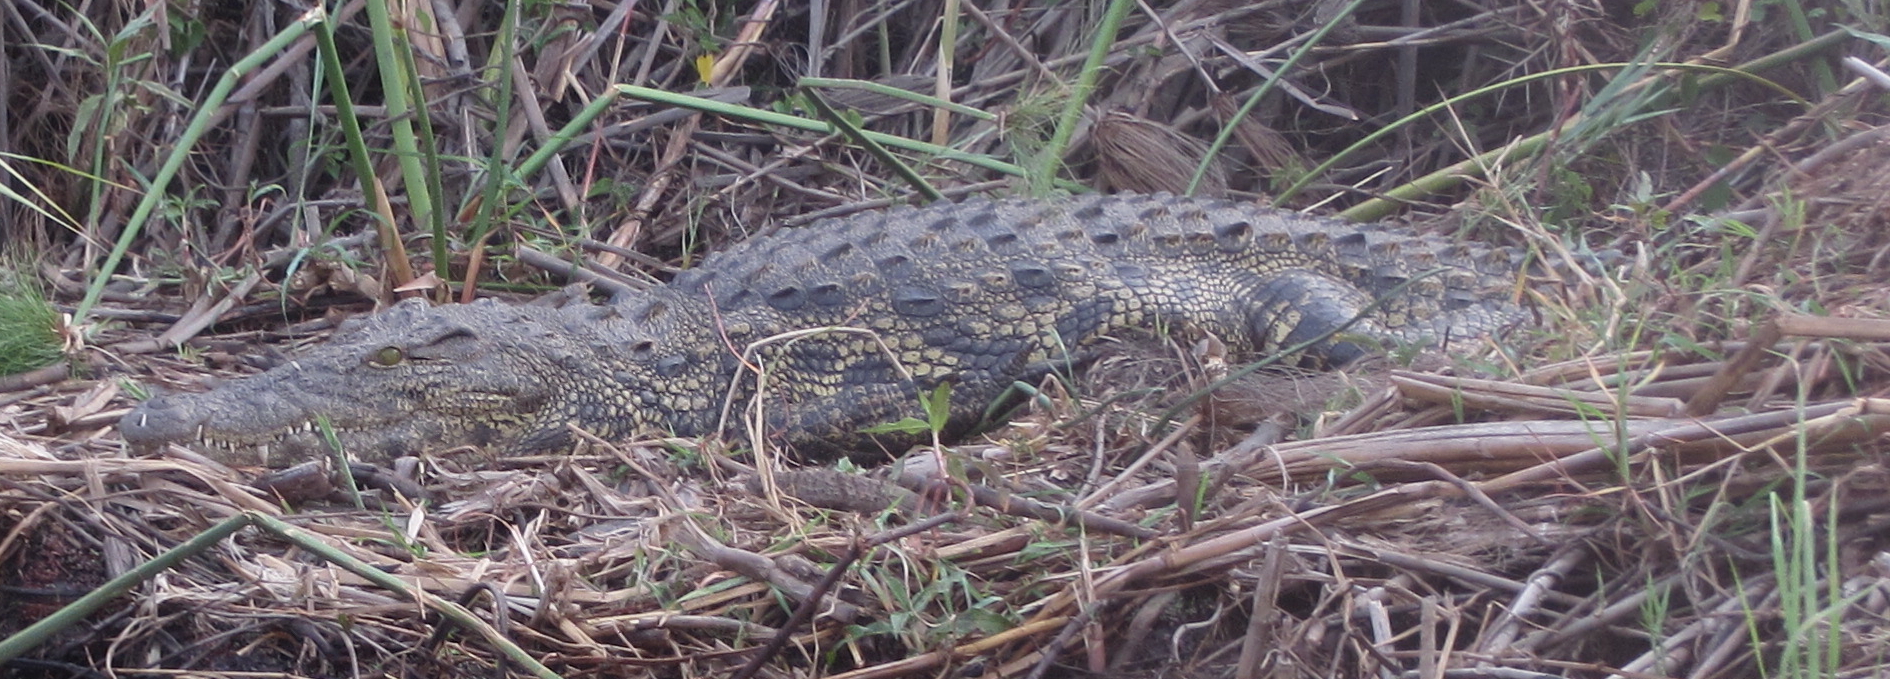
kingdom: Animalia
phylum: Chordata
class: Crocodylia
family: Crocodylidae
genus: Crocodylus
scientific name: Crocodylus niloticus
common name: Nile crocodile
